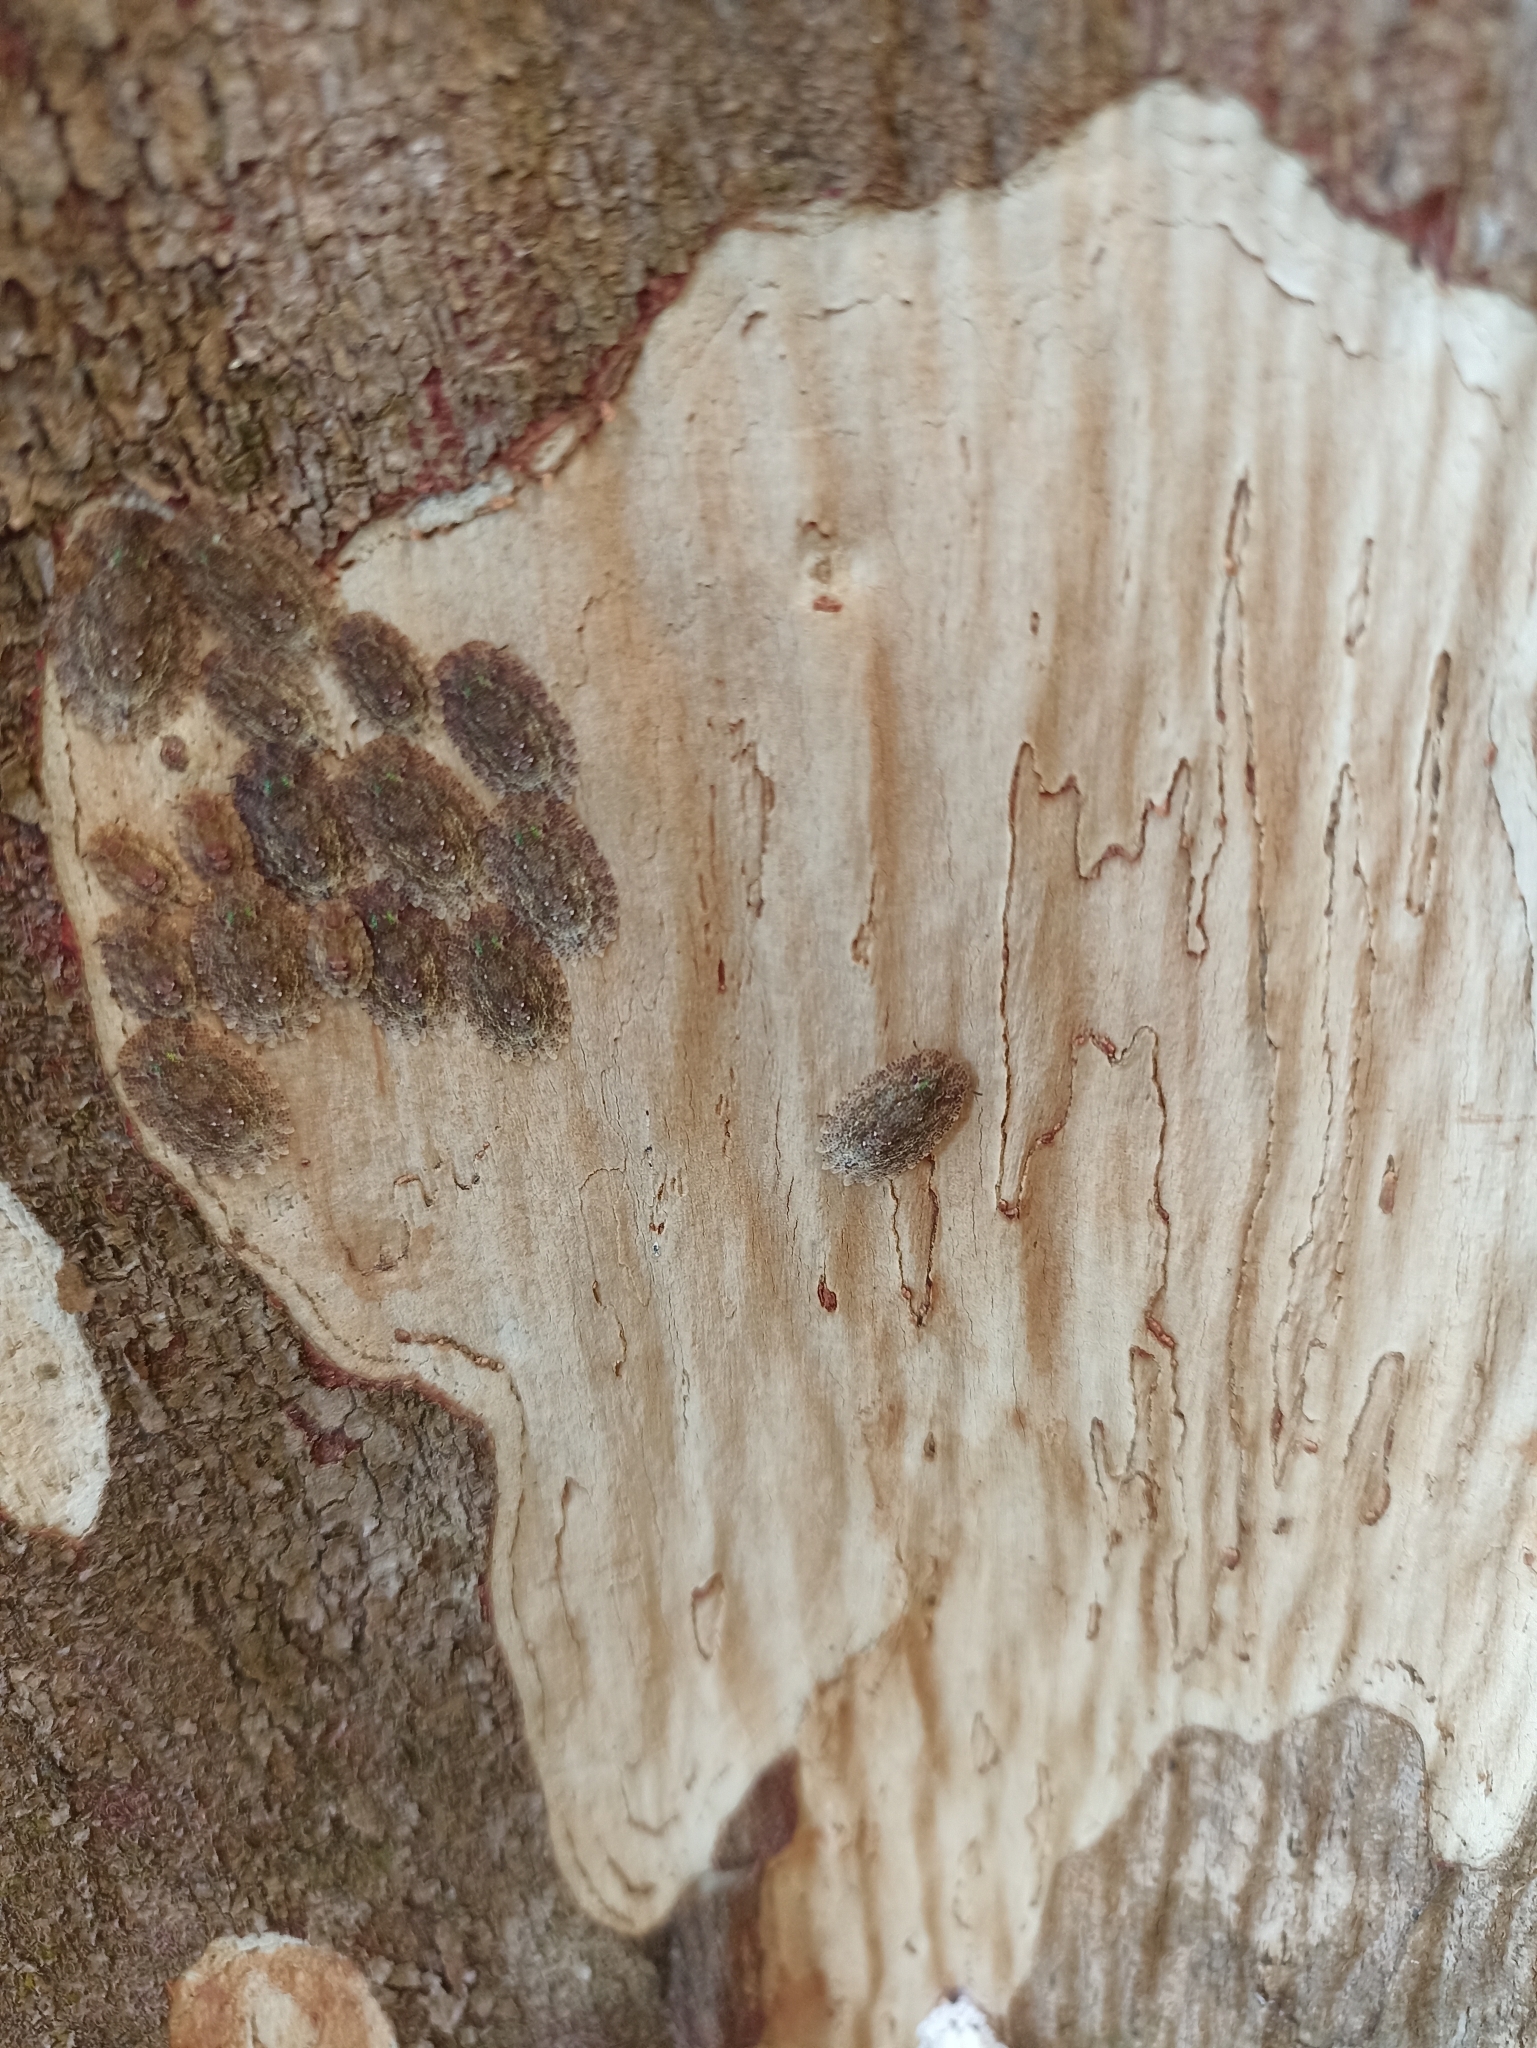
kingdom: Animalia
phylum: Arthropoda
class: Insecta
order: Hemiptera
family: Phleides
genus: Phloea
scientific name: Phloea
